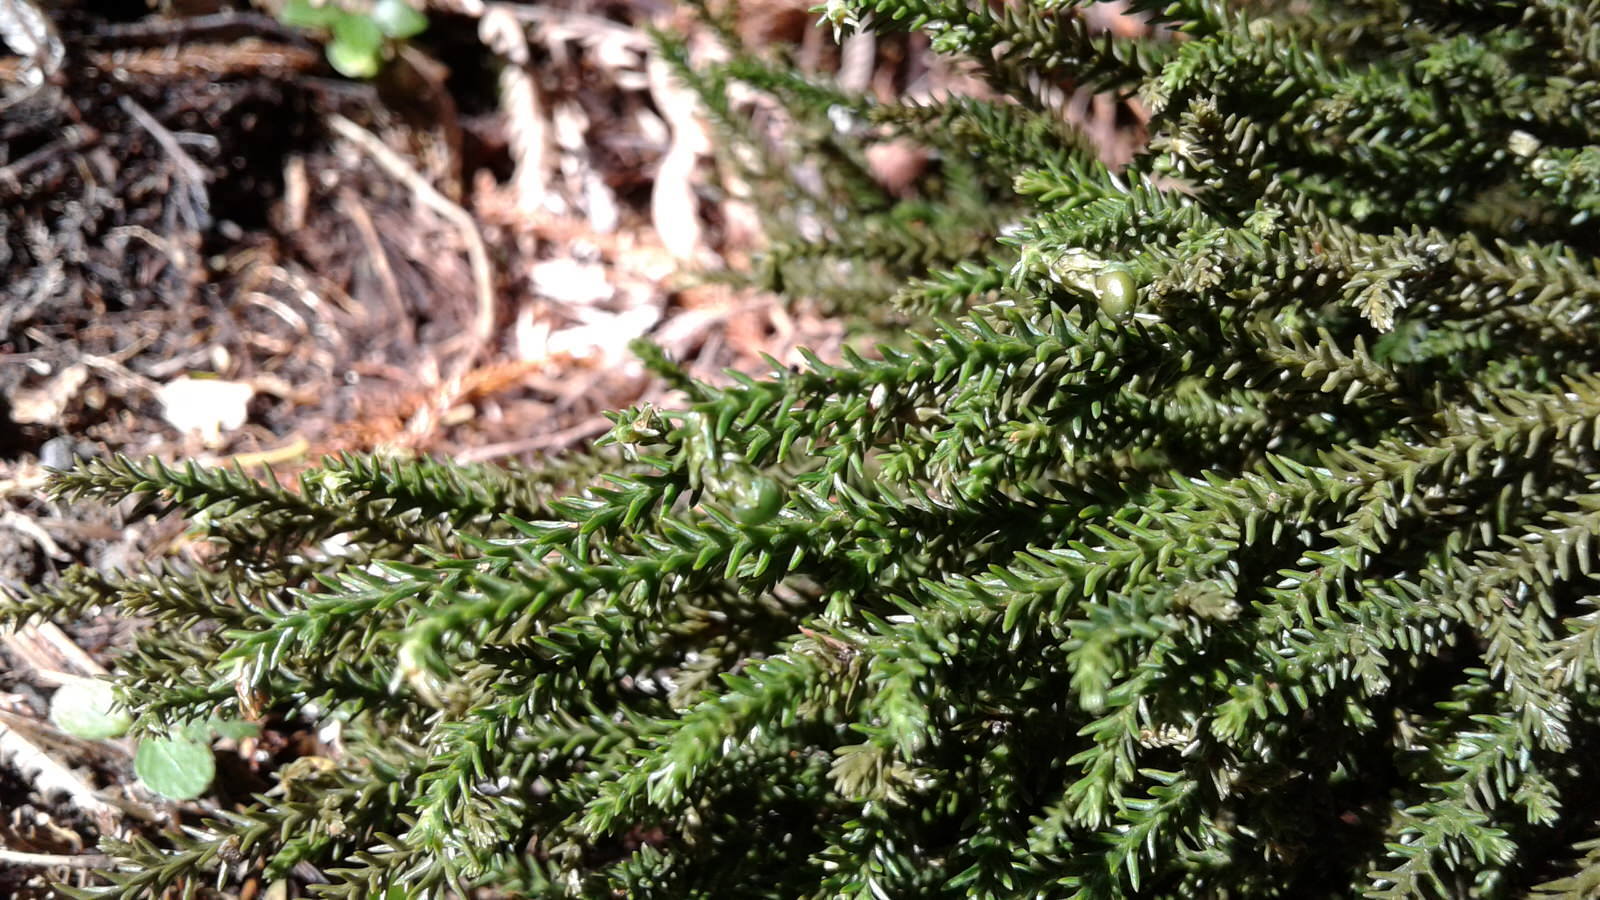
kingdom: Plantae
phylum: Tracheophyta
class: Pinopsida
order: Pinales
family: Podocarpaceae
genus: Dacrydium
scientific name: Dacrydium cupressinum
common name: Red pine
